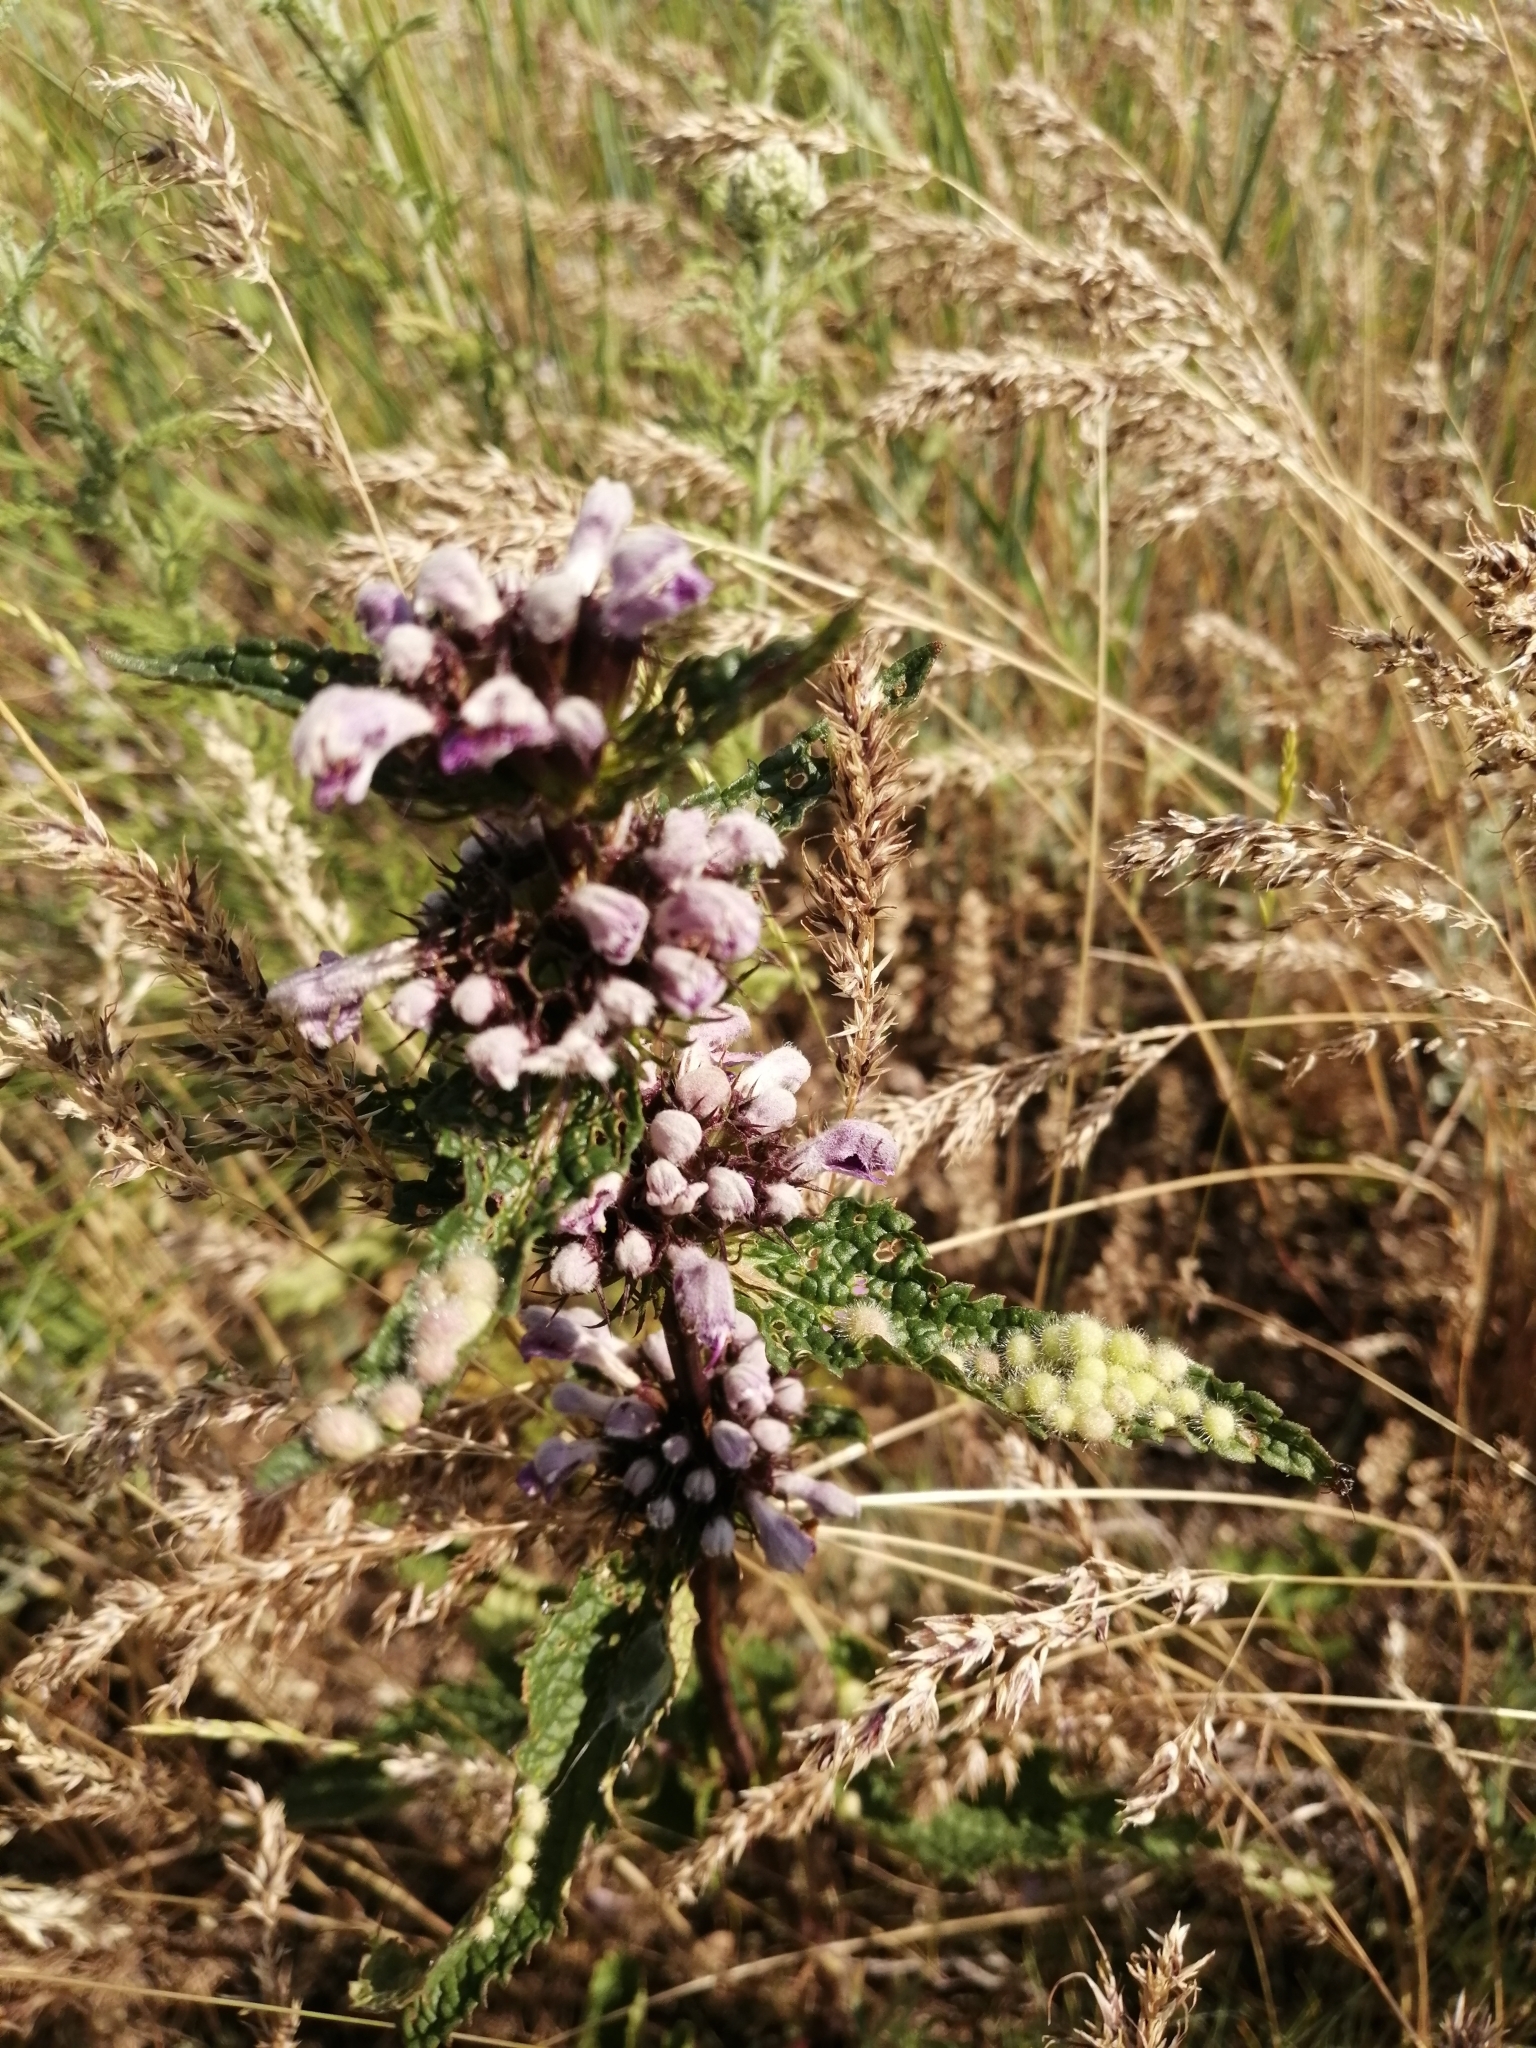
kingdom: Plantae
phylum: Tracheophyta
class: Magnoliopsida
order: Lamiales
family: Lamiaceae
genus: Phlomoides
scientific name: Phlomoides tuberosa
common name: Tuberous jerusalem sage
